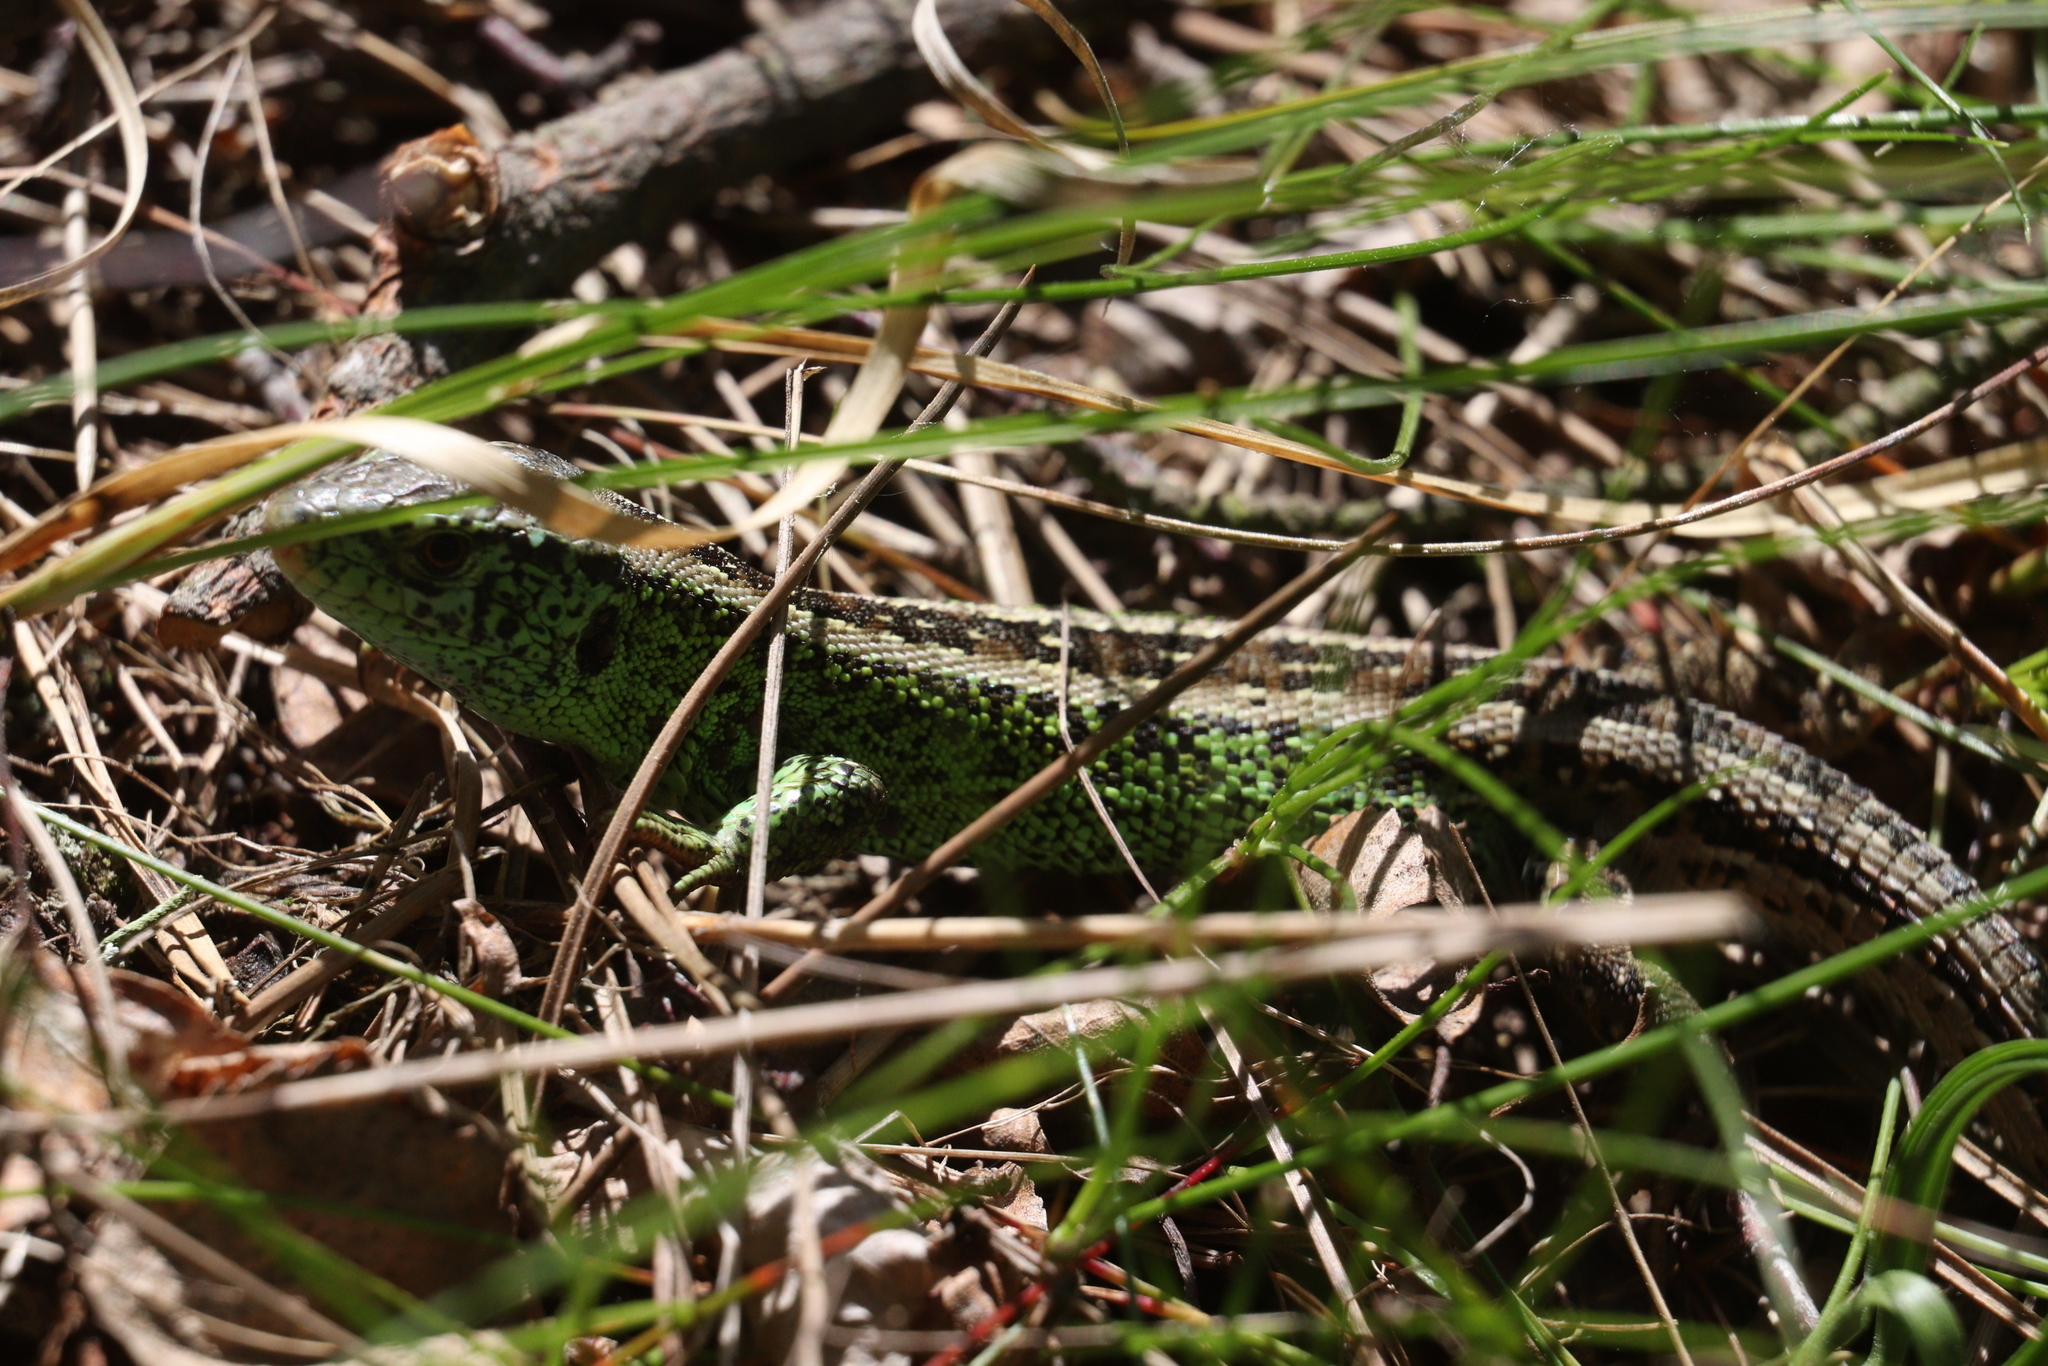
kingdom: Animalia
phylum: Chordata
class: Squamata
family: Lacertidae
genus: Lacerta
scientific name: Lacerta agilis
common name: Sand lizard
